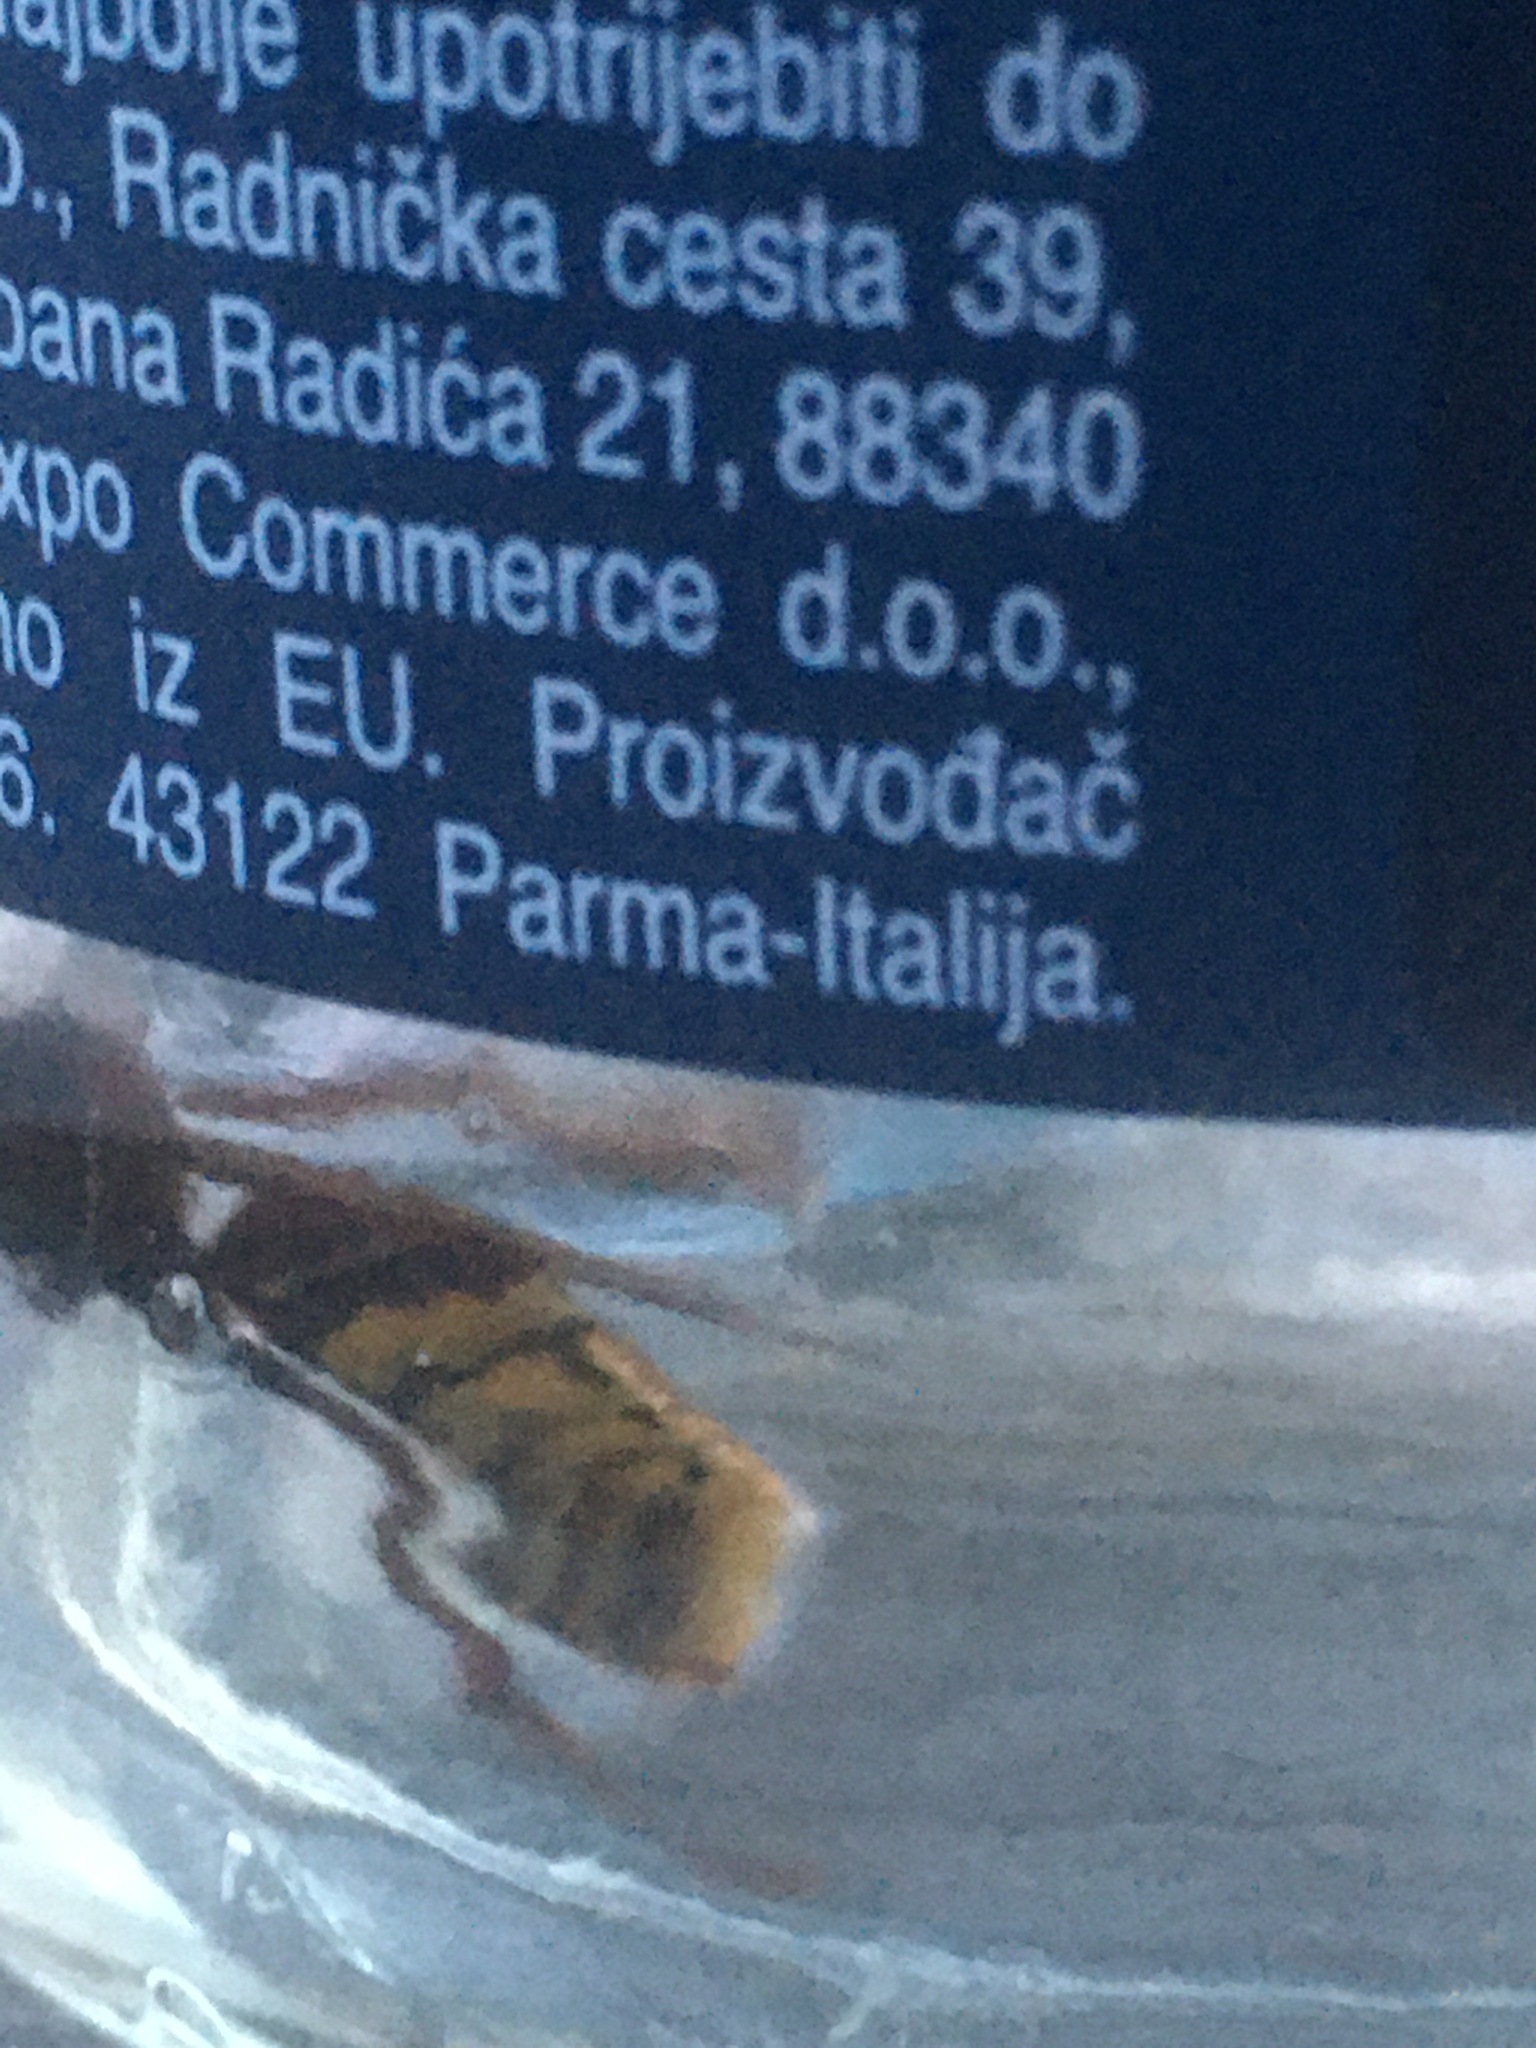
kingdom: Animalia
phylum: Arthropoda
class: Insecta
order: Hymenoptera
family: Vespidae
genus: Vespa
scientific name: Vespa crabro
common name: Hornet
